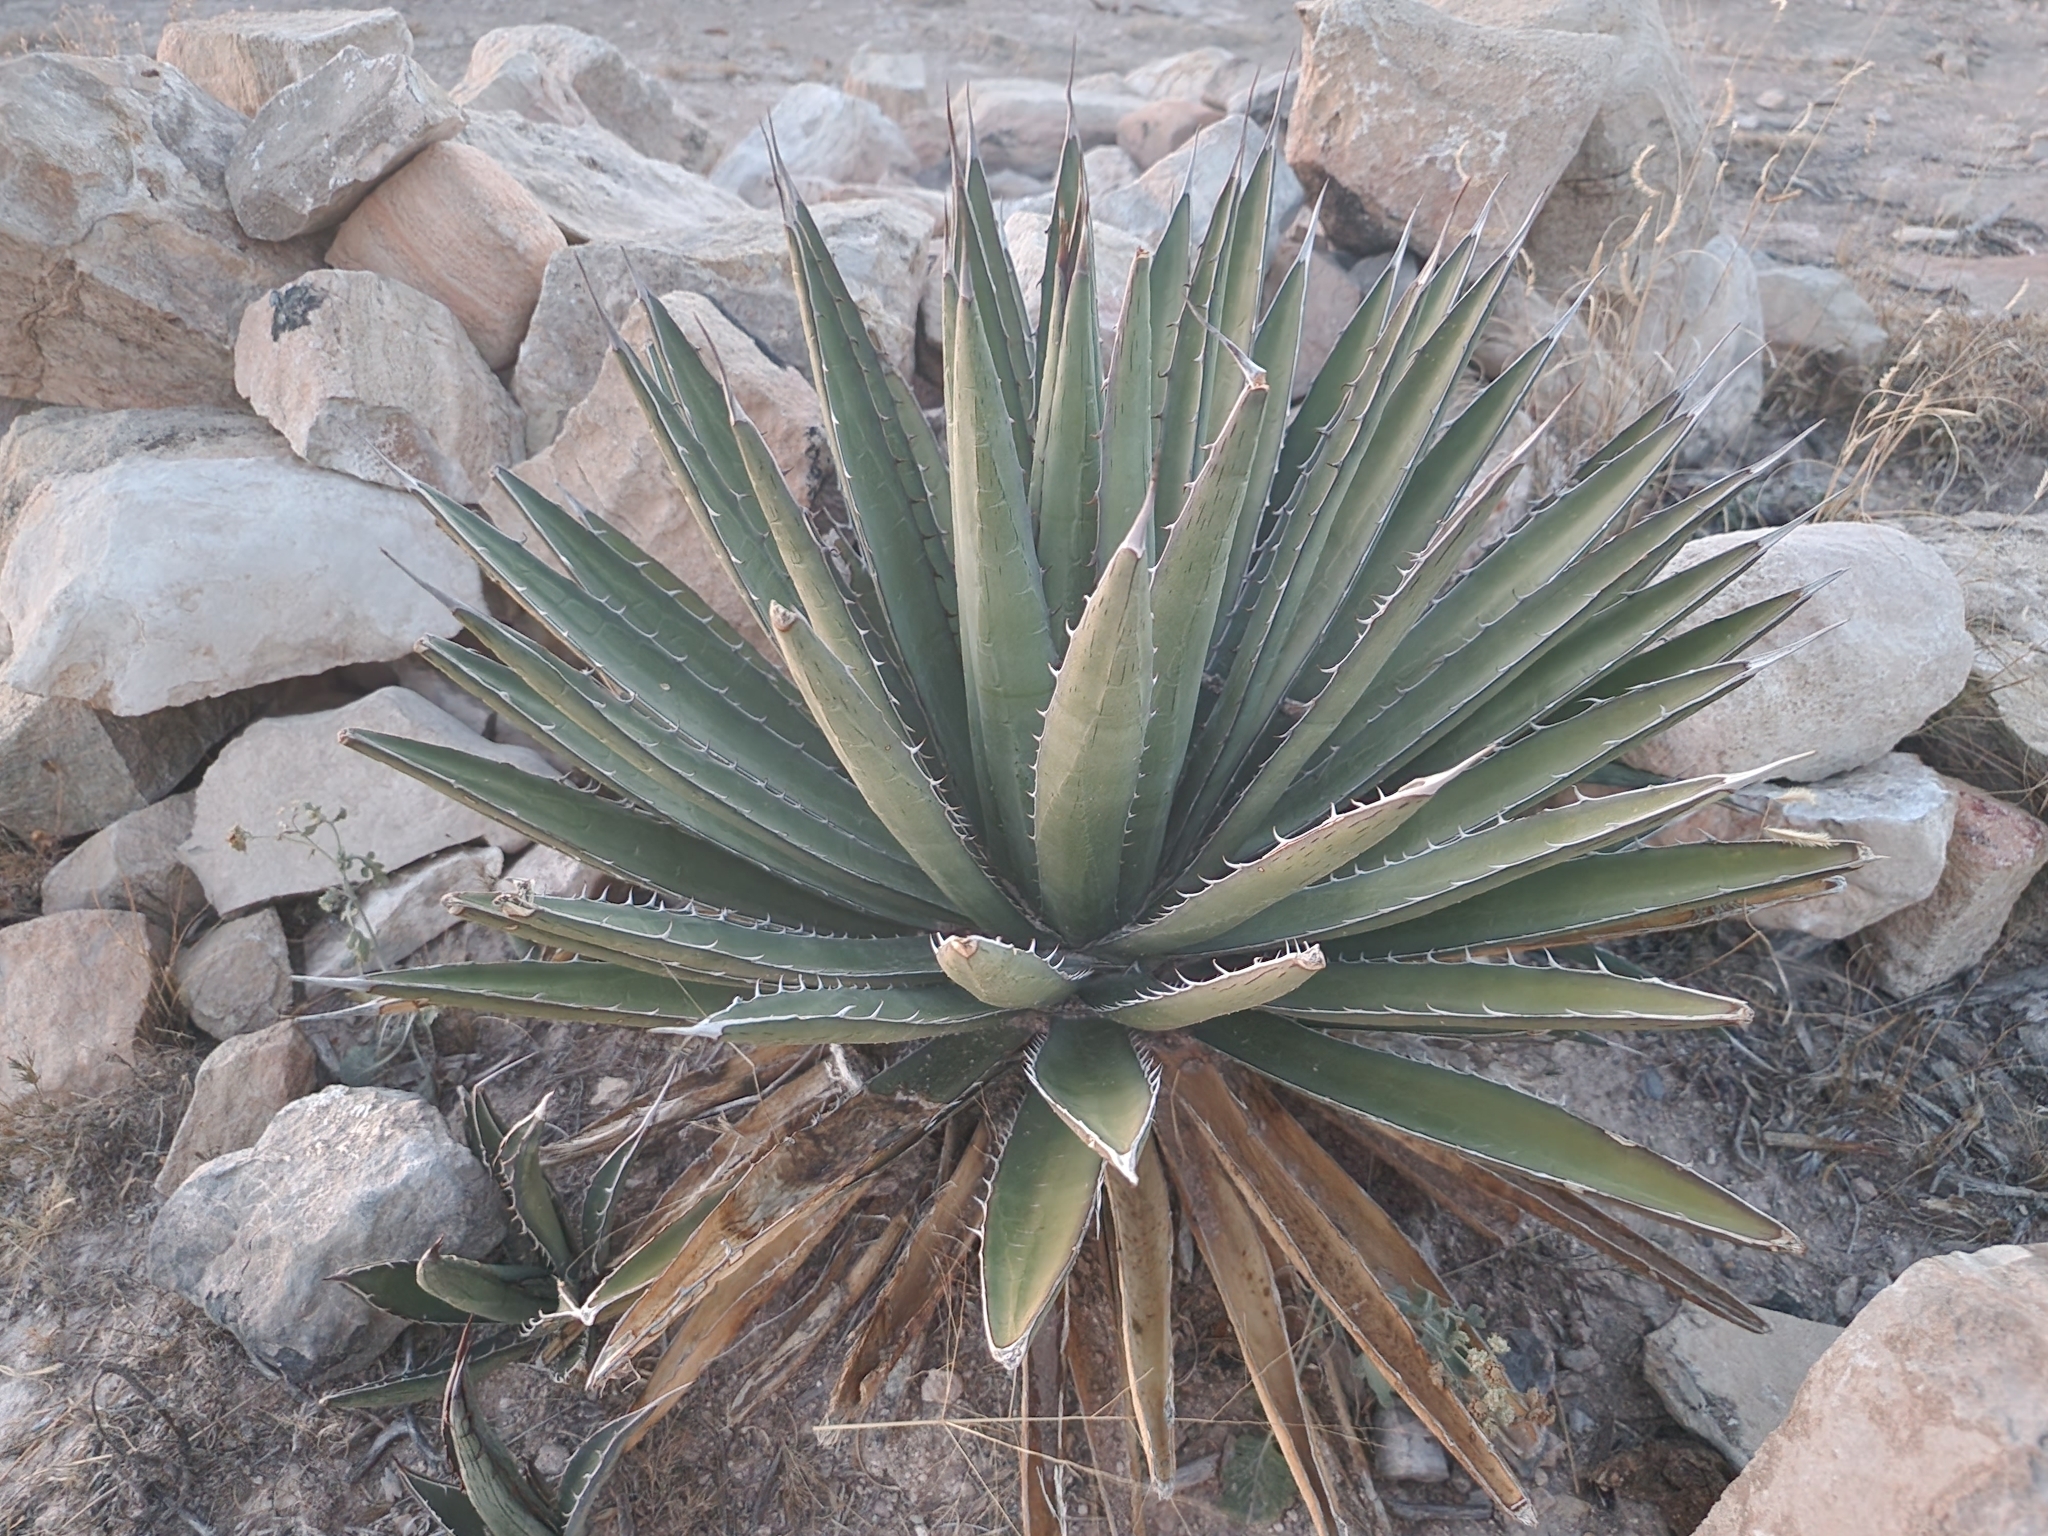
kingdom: Plantae
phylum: Tracheophyta
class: Liliopsida
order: Asparagales
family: Asparagaceae
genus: Agave
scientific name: Agave lechuguilla
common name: Lecheguilla agave
